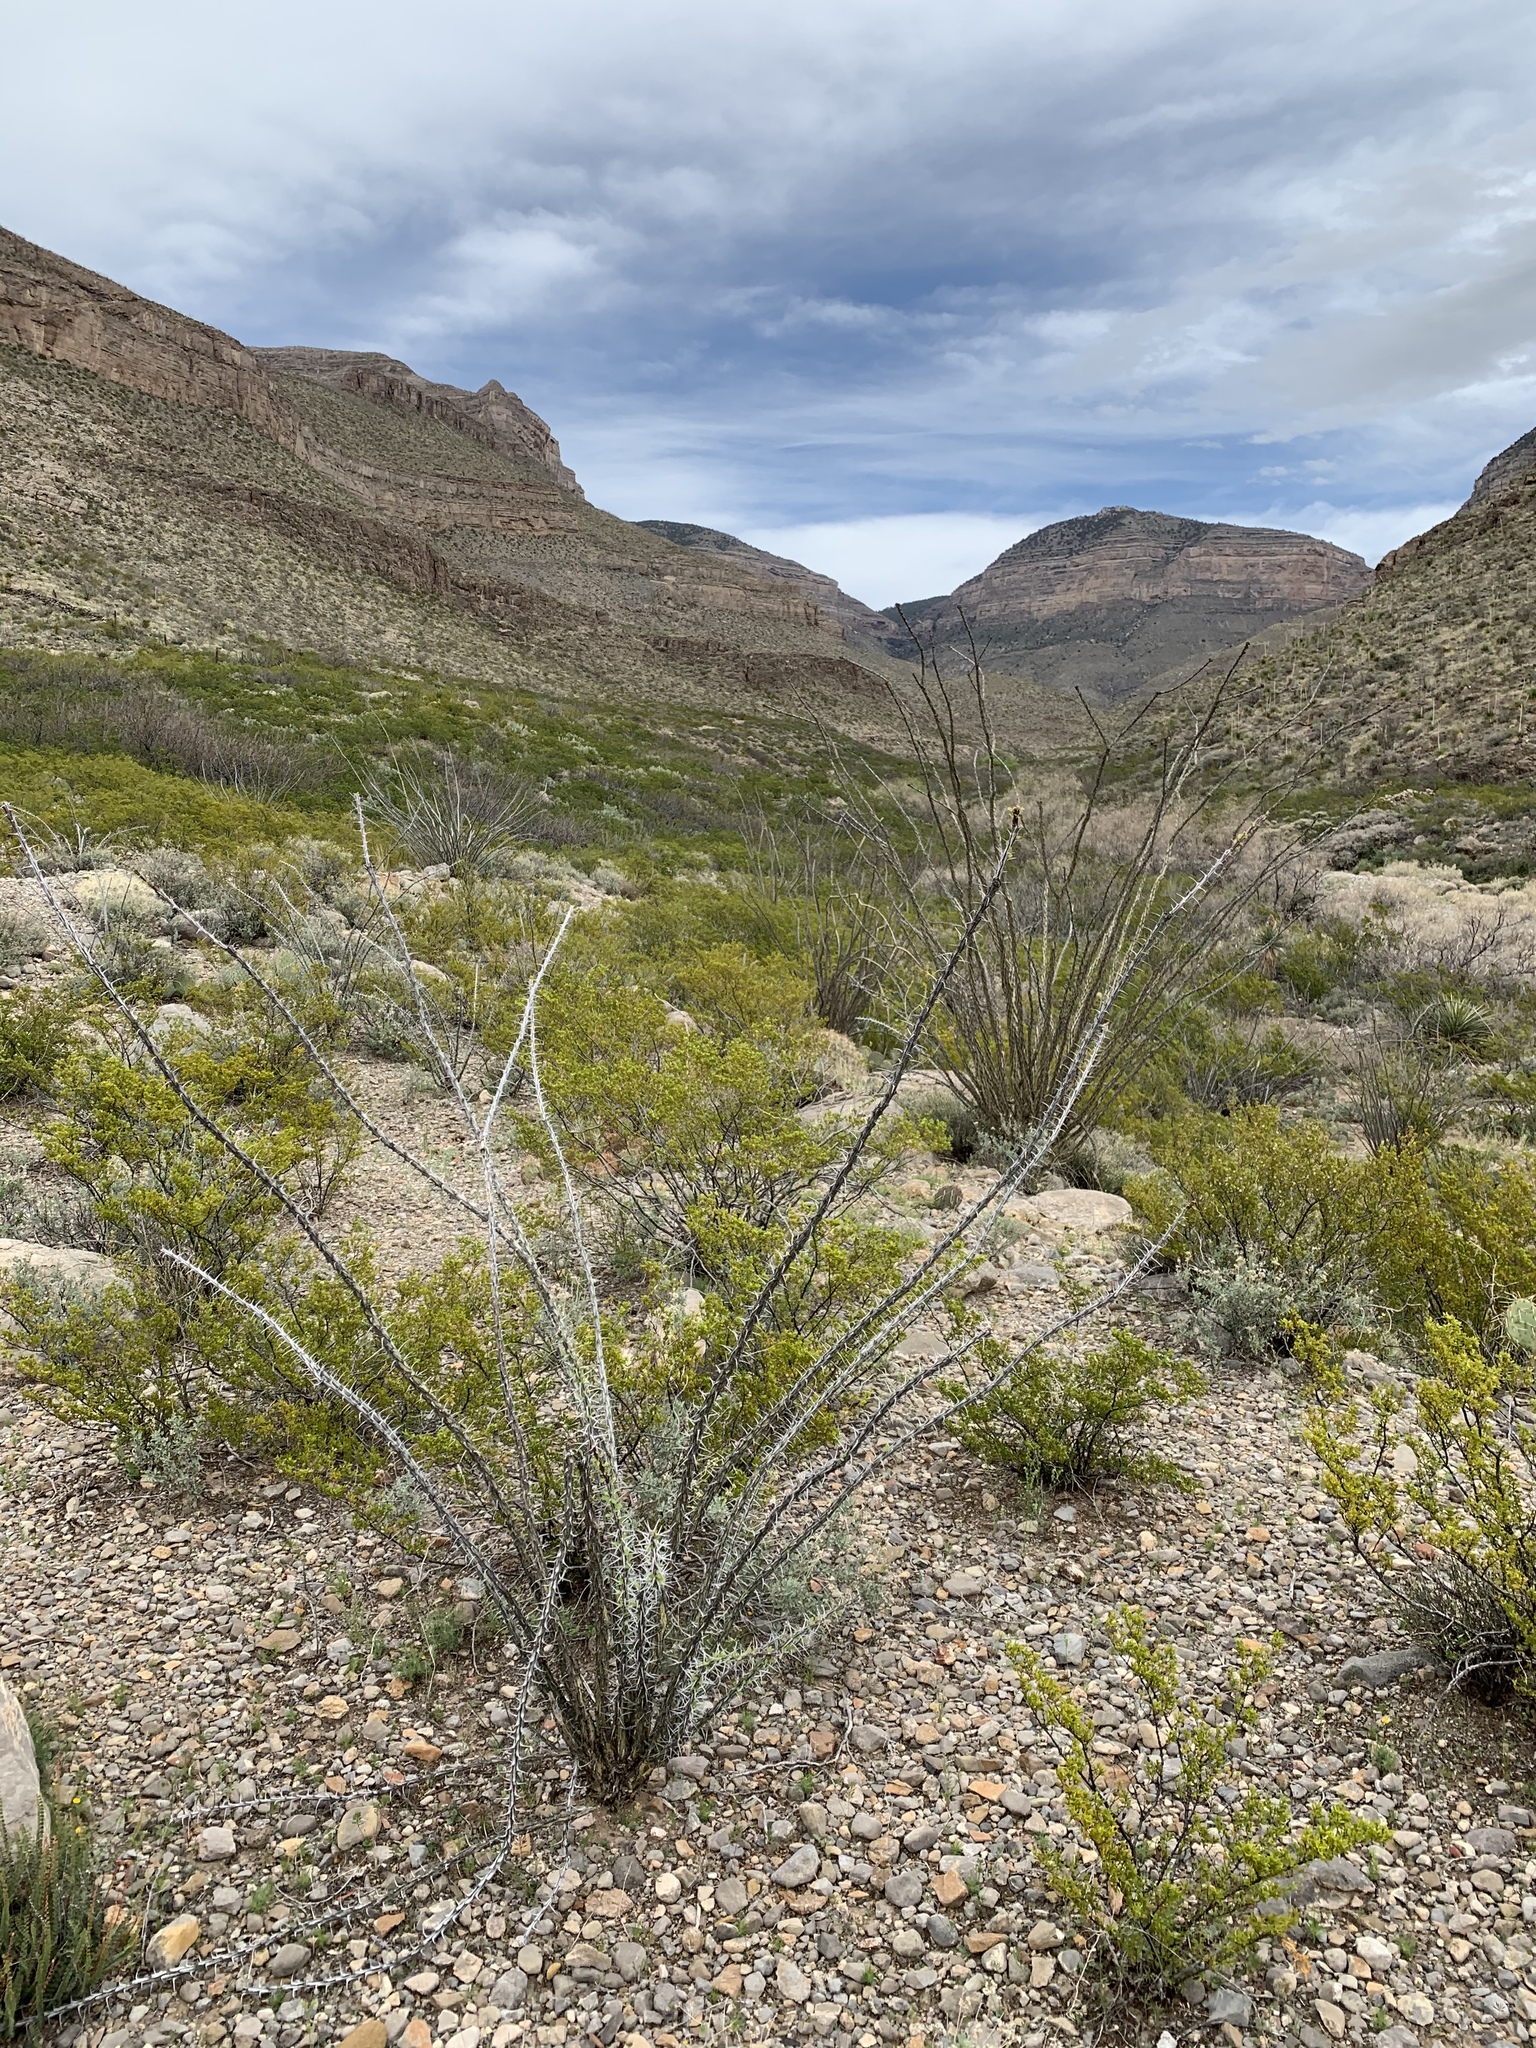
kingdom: Plantae
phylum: Tracheophyta
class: Magnoliopsida
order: Ericales
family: Fouquieriaceae
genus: Fouquieria
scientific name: Fouquieria splendens
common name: Vine-cactus
